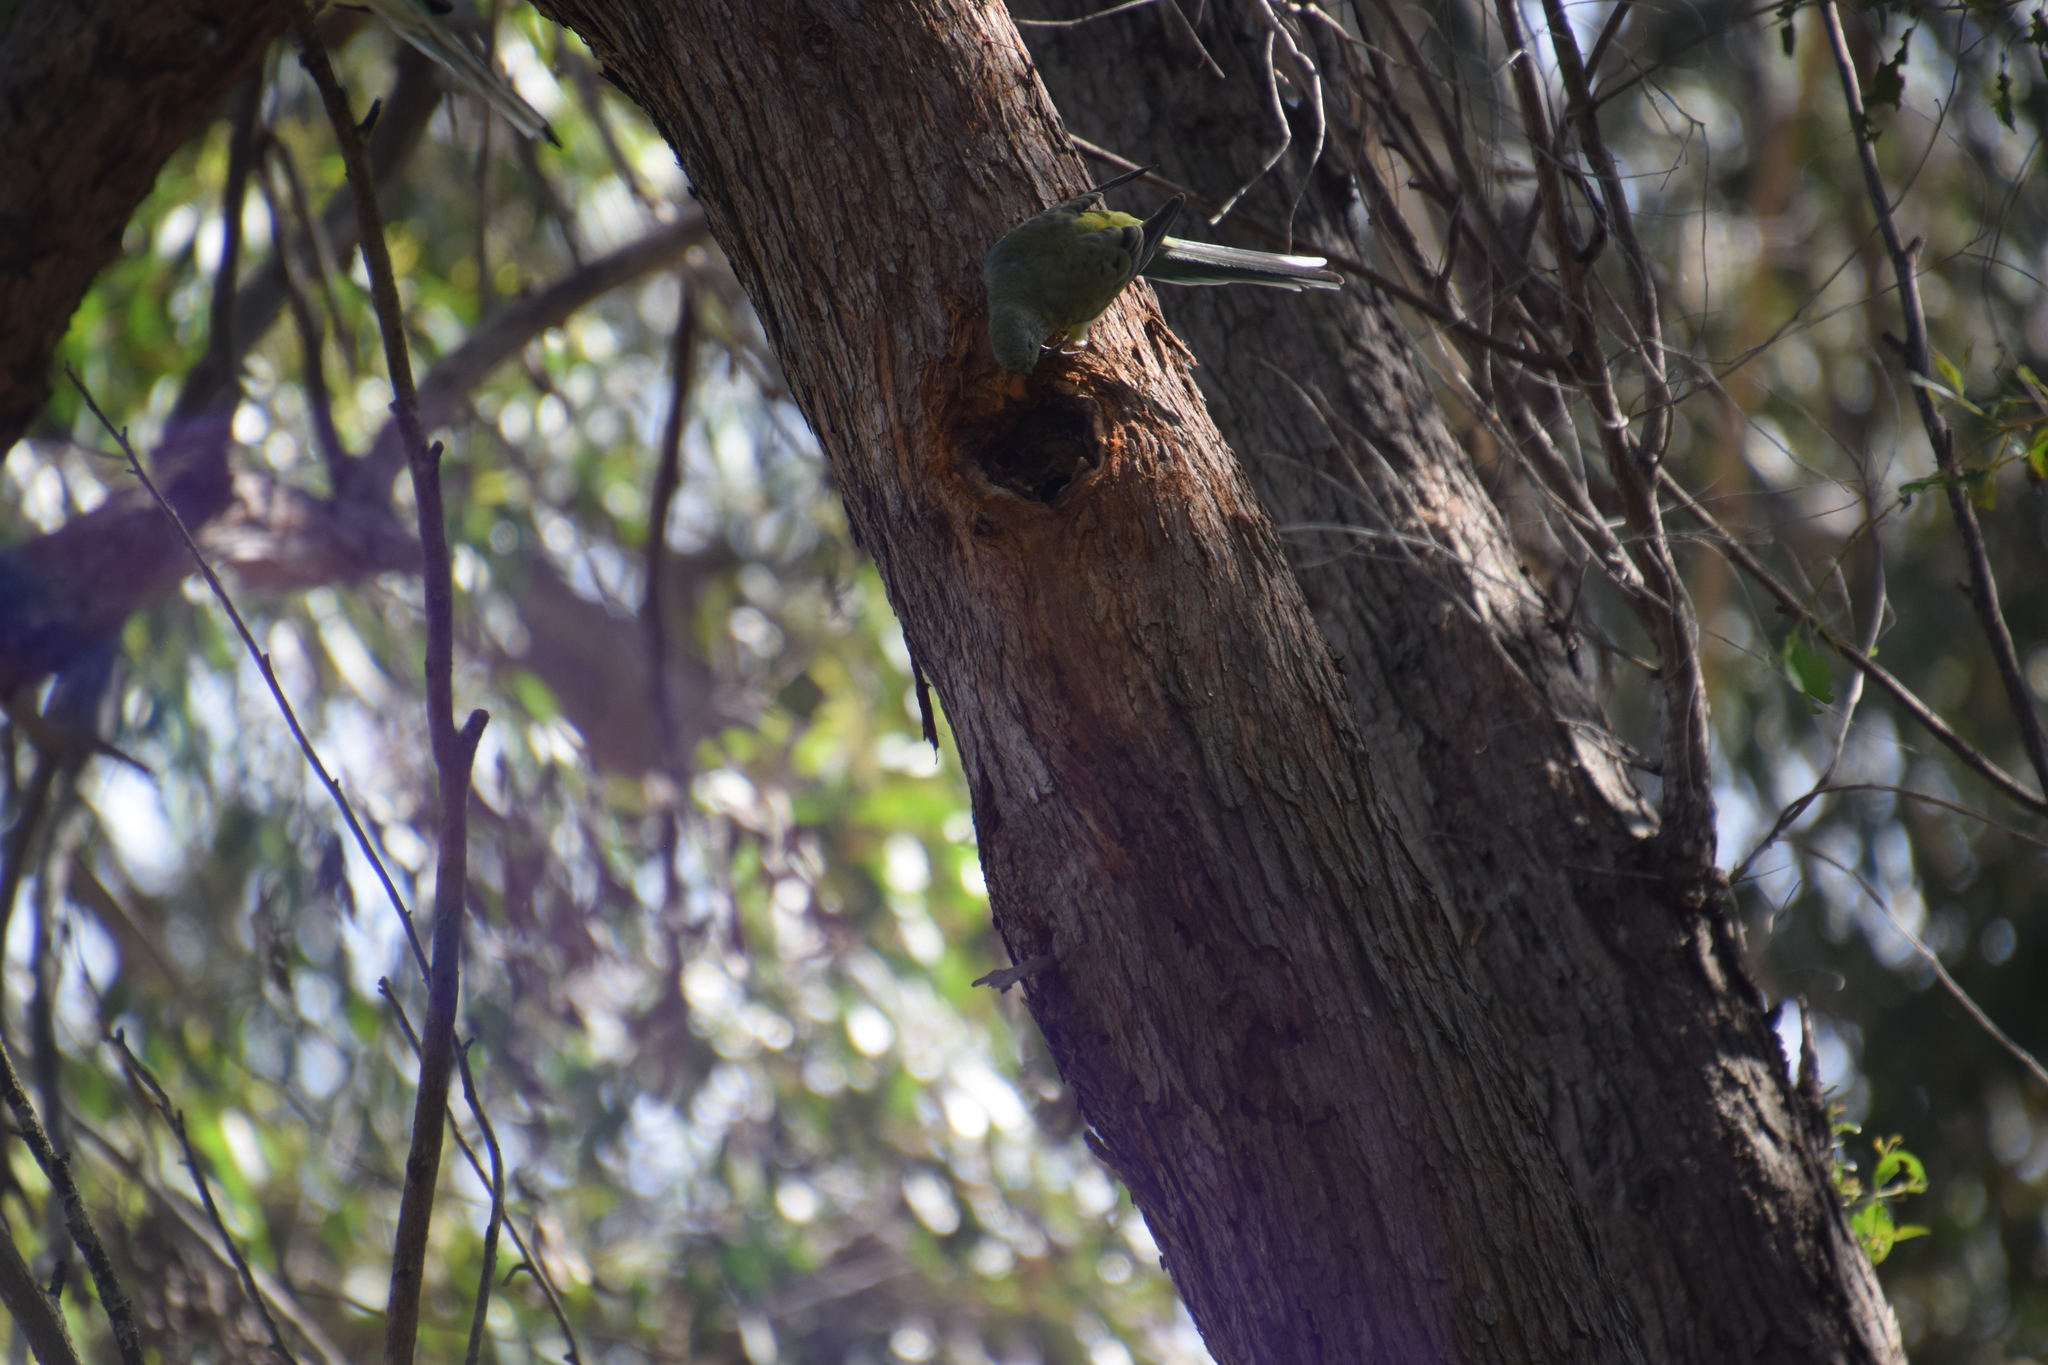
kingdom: Animalia
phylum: Chordata
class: Aves
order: Psittaciformes
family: Psittacidae
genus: Psephotus
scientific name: Psephotus haematonotus
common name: Red-rumped parrot
